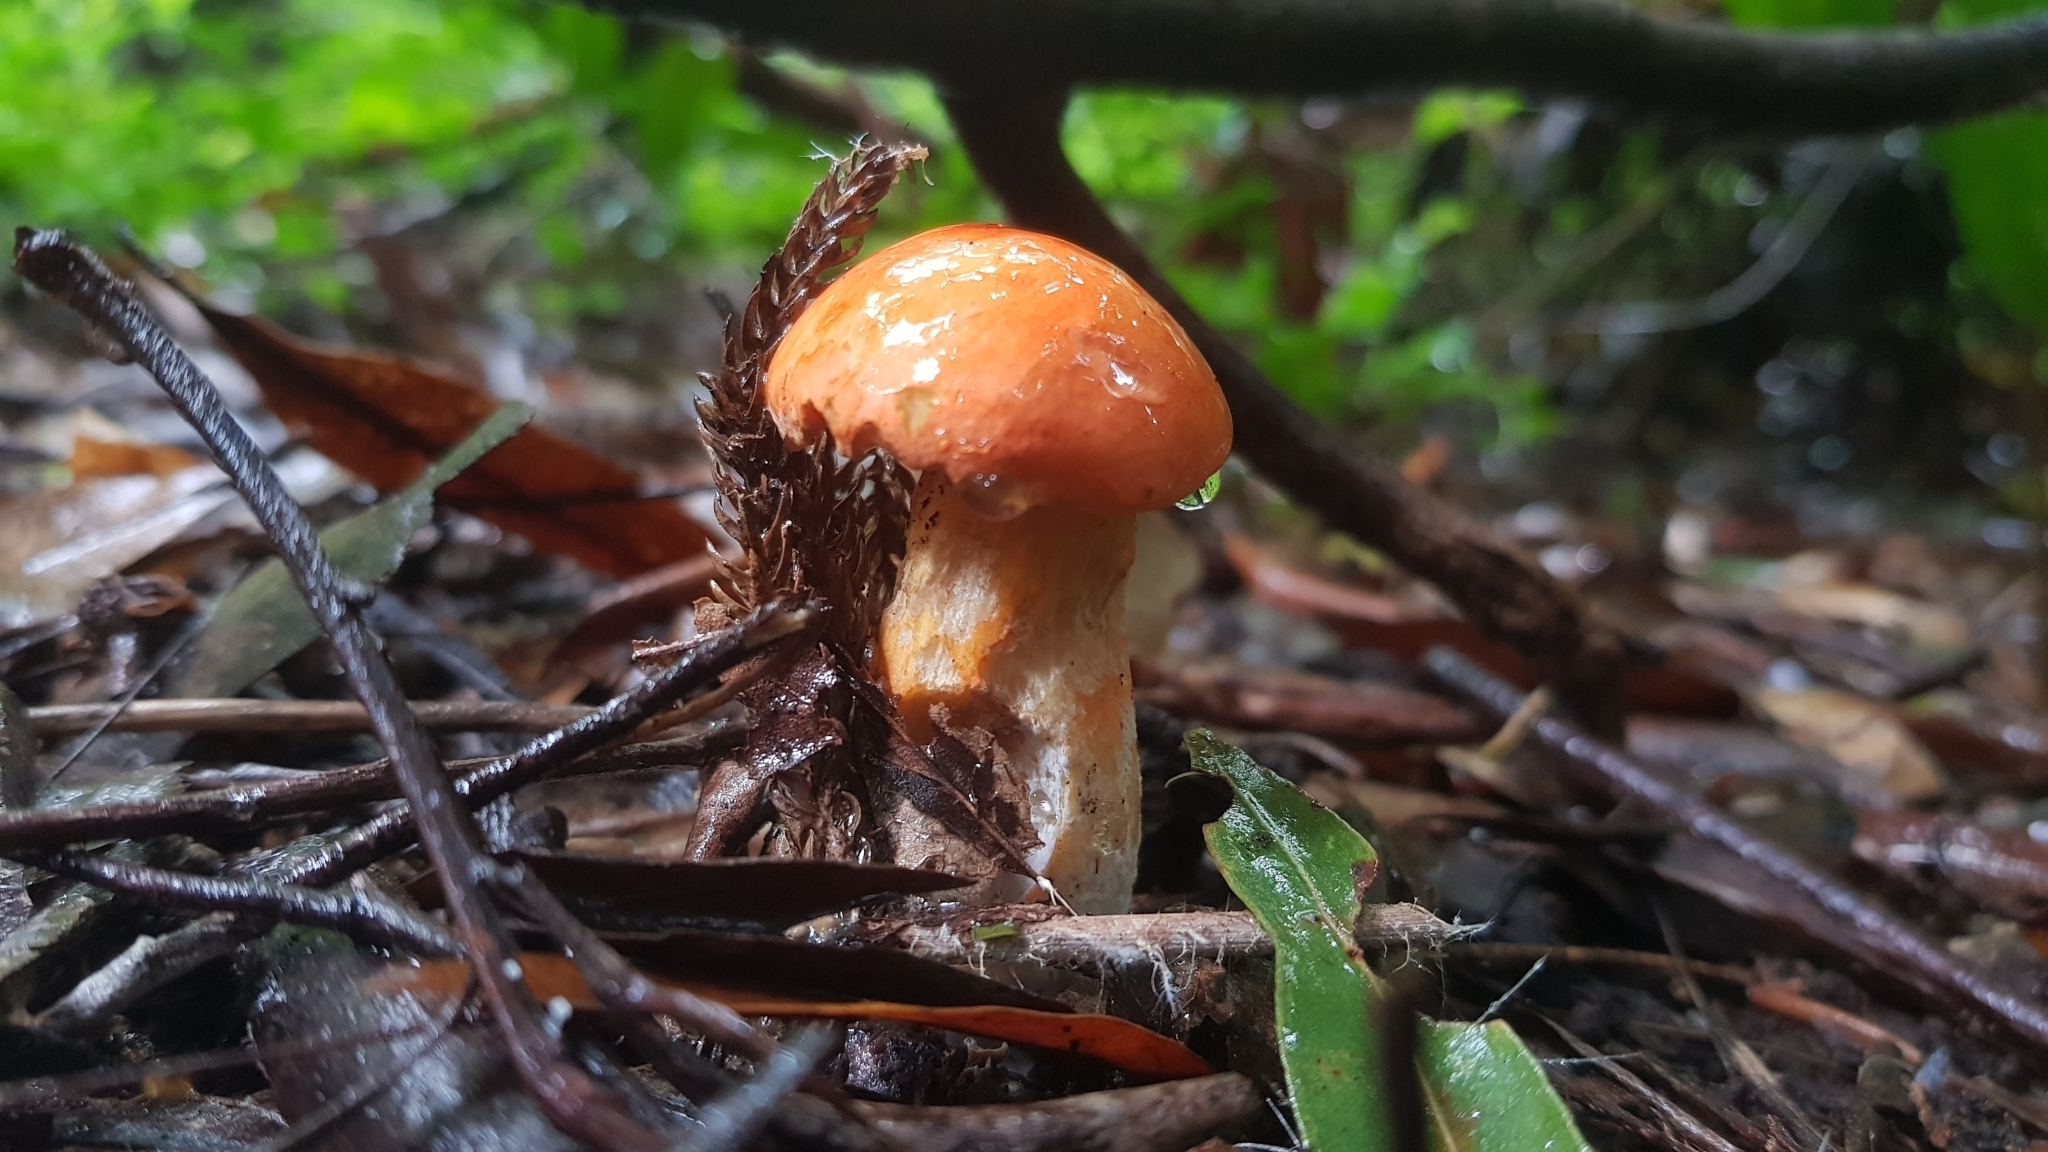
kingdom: Fungi
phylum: Basidiomycota
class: Agaricomycetes
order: Boletales
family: Boletaceae
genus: Tylopilus
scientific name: Tylopilus balloui
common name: Burnt-orange bolete
